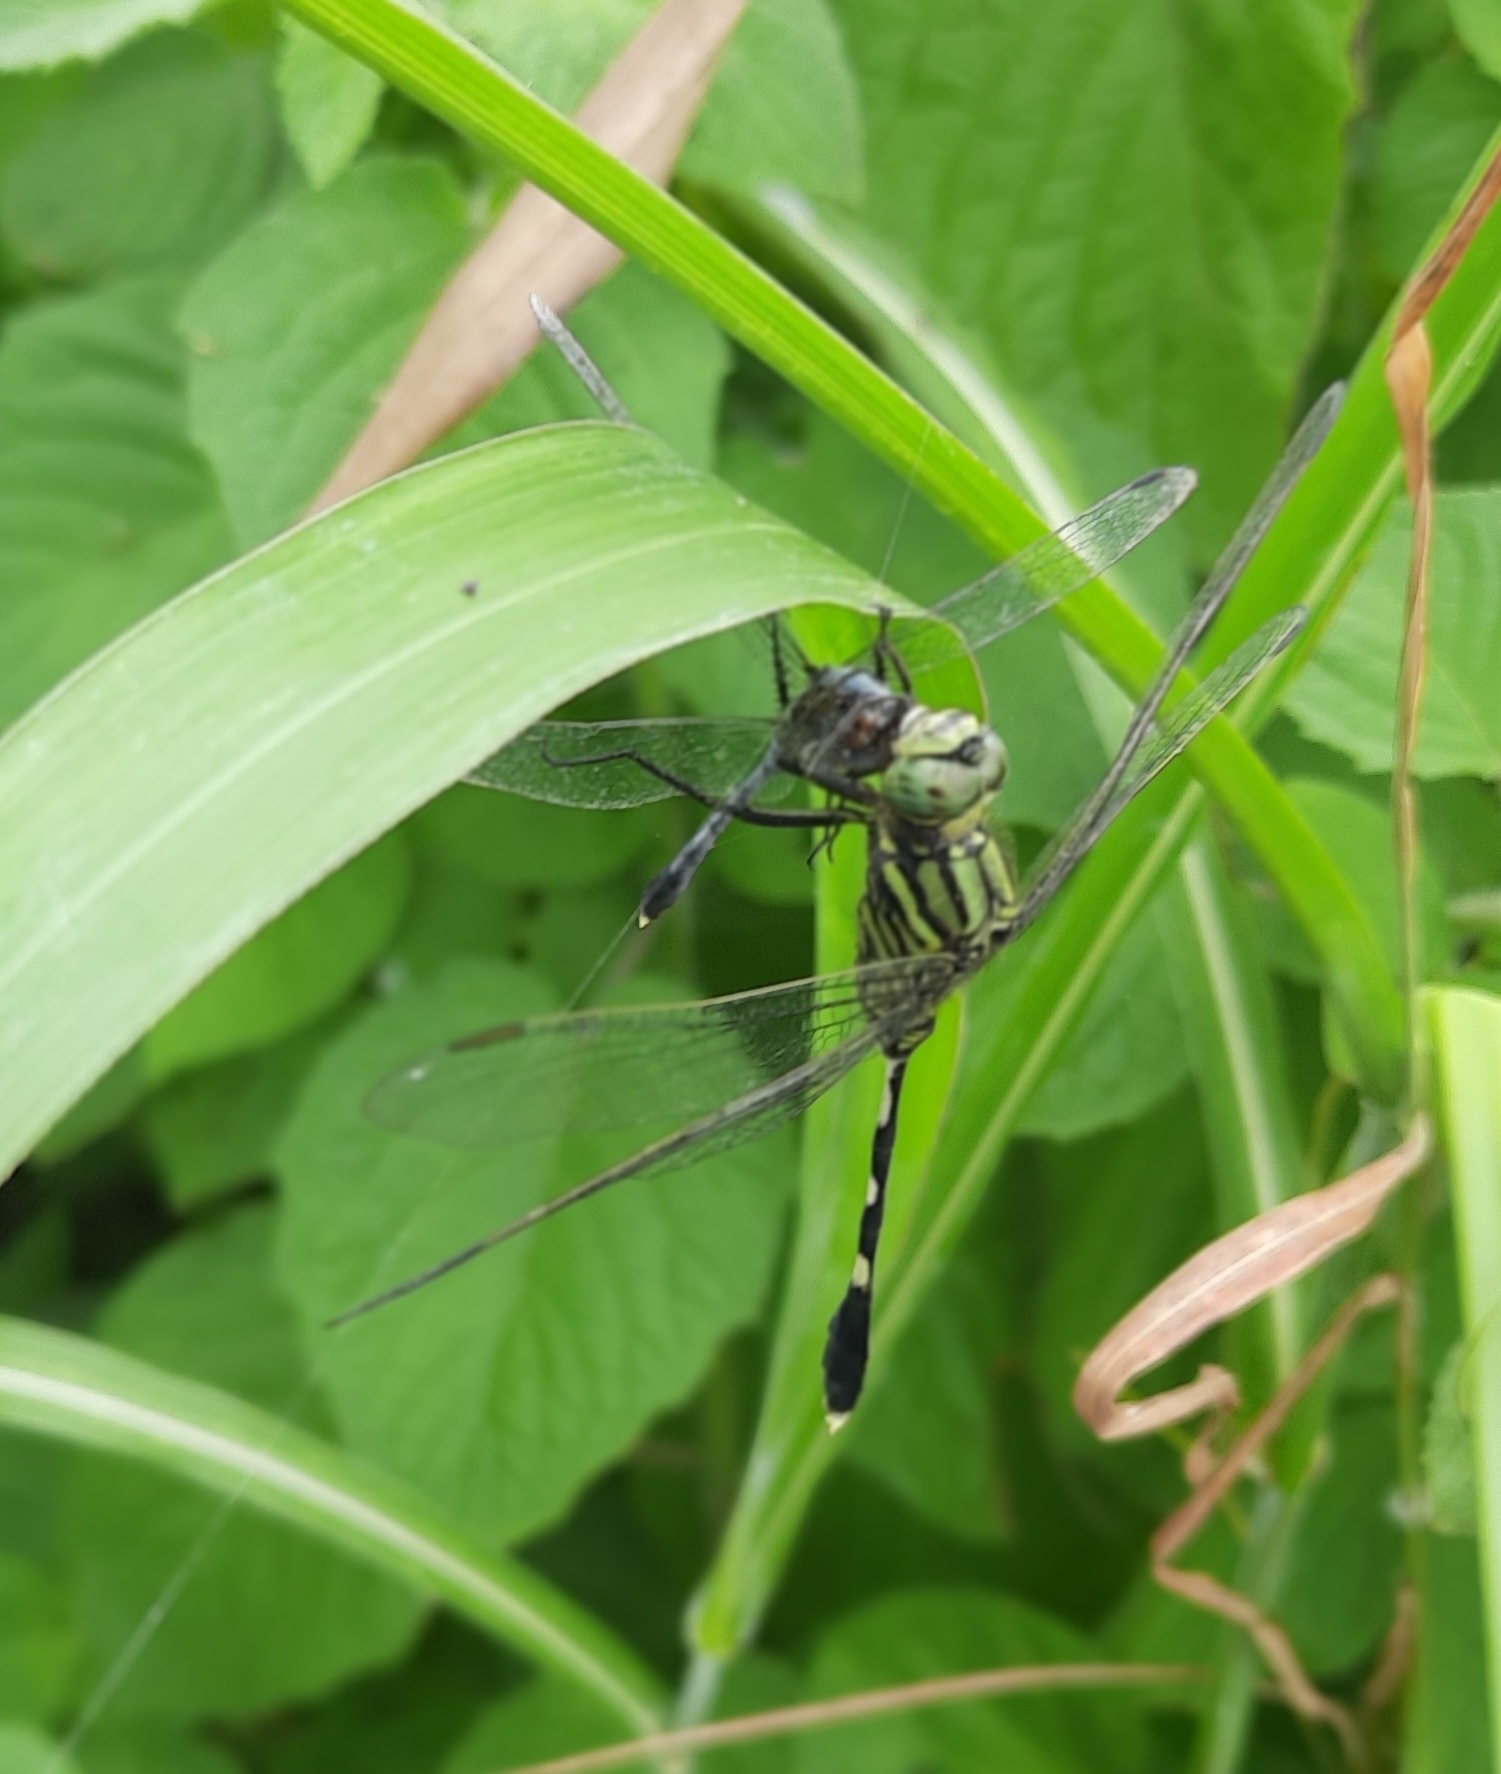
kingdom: Animalia
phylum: Arthropoda
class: Insecta
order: Odonata
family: Libellulidae
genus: Orthetrum
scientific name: Orthetrum sabina
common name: Slender skimmer
